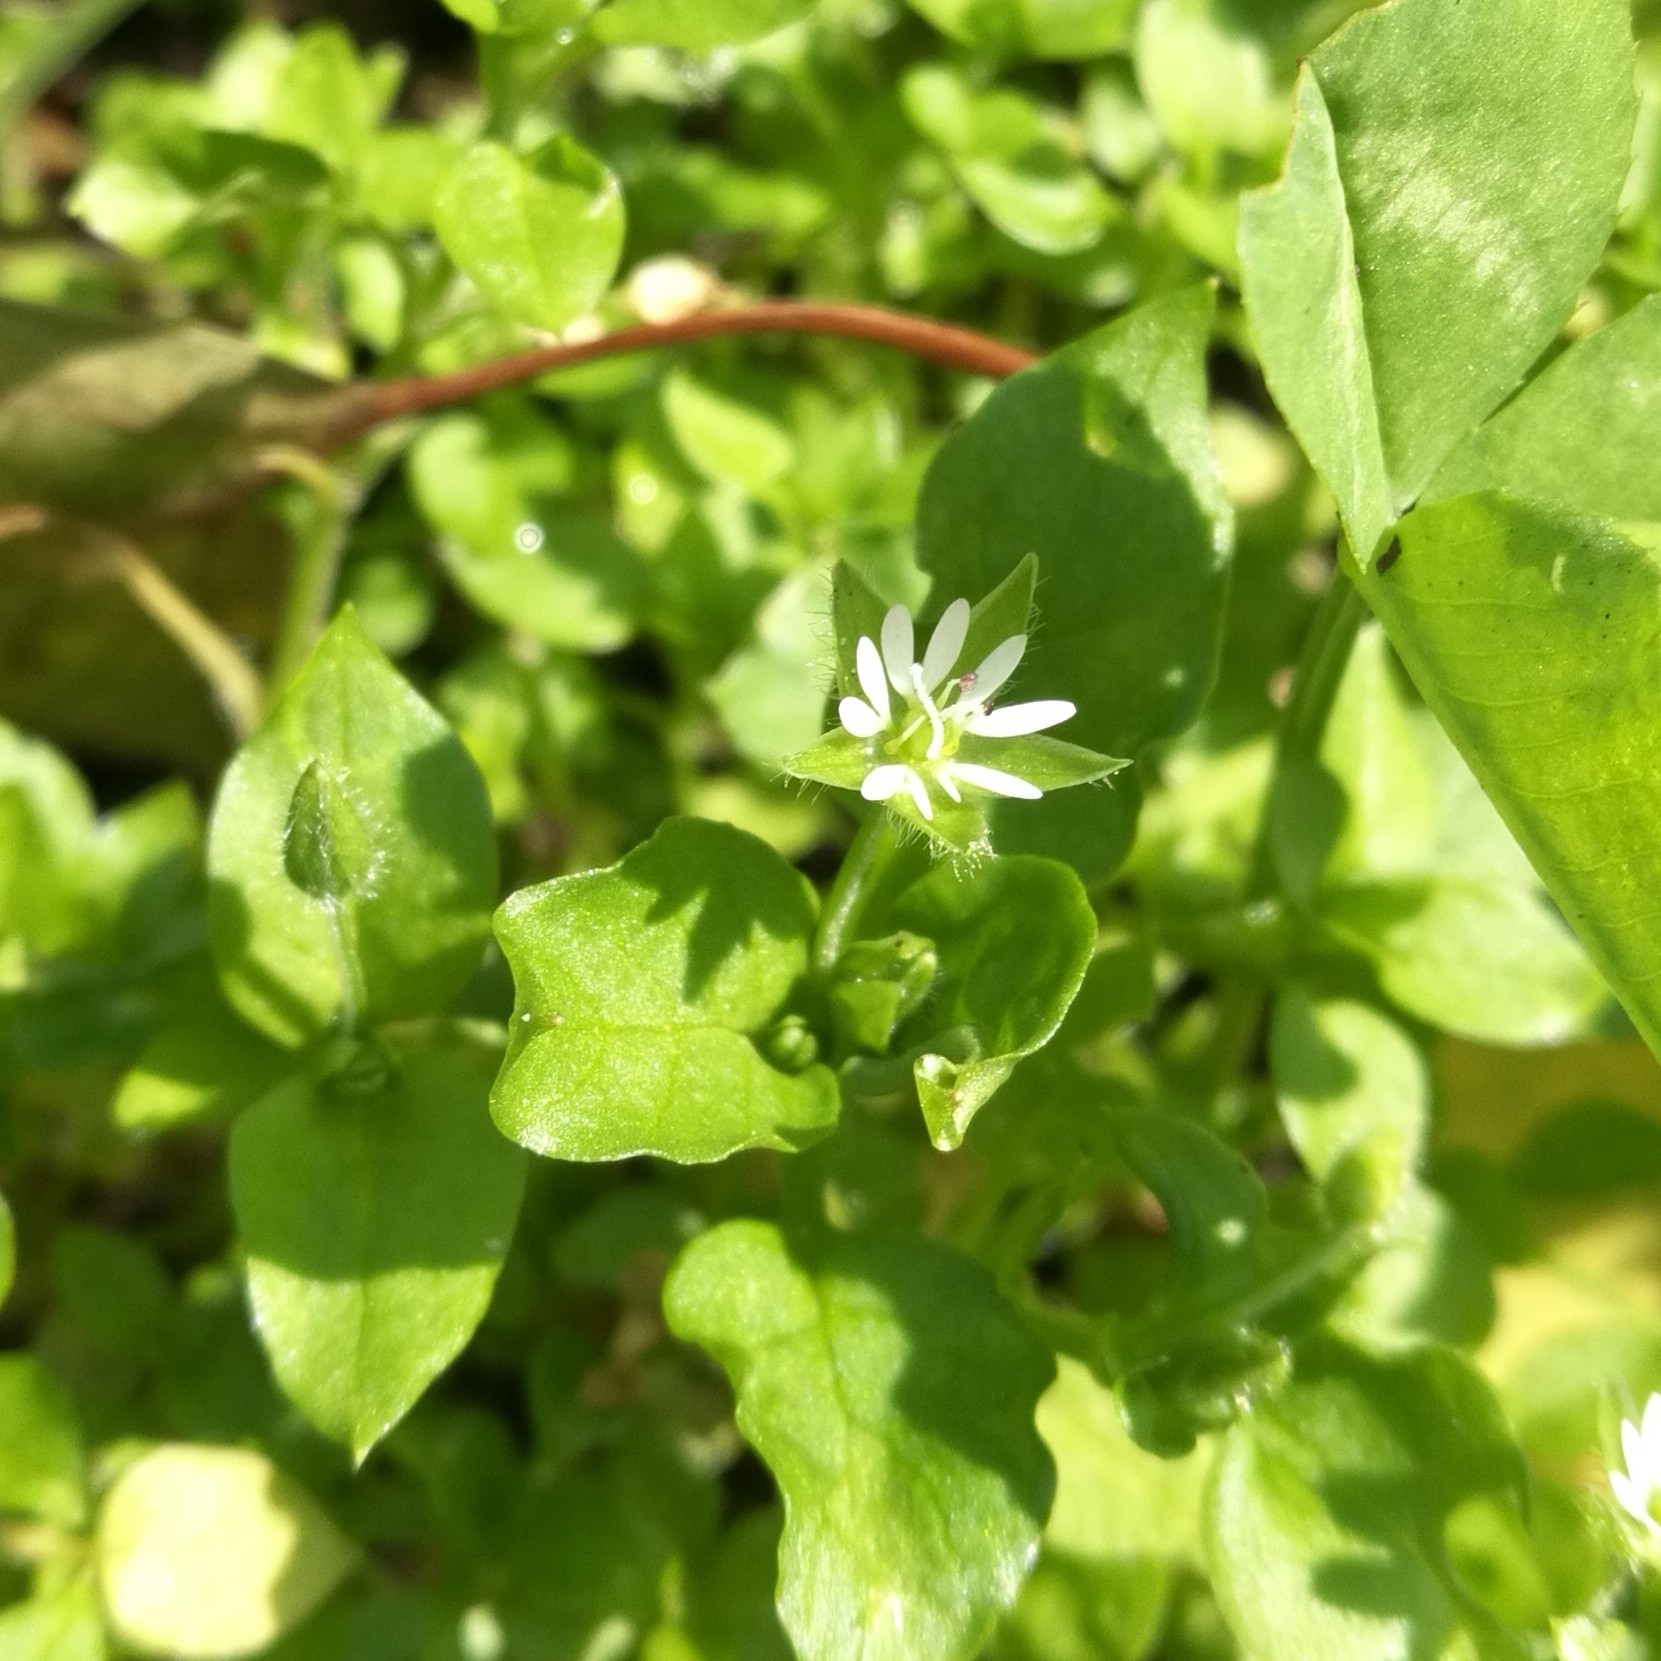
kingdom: Plantae
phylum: Tracheophyta
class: Magnoliopsida
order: Caryophyllales
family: Caryophyllaceae
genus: Stellaria
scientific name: Stellaria media
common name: Common chickweed
